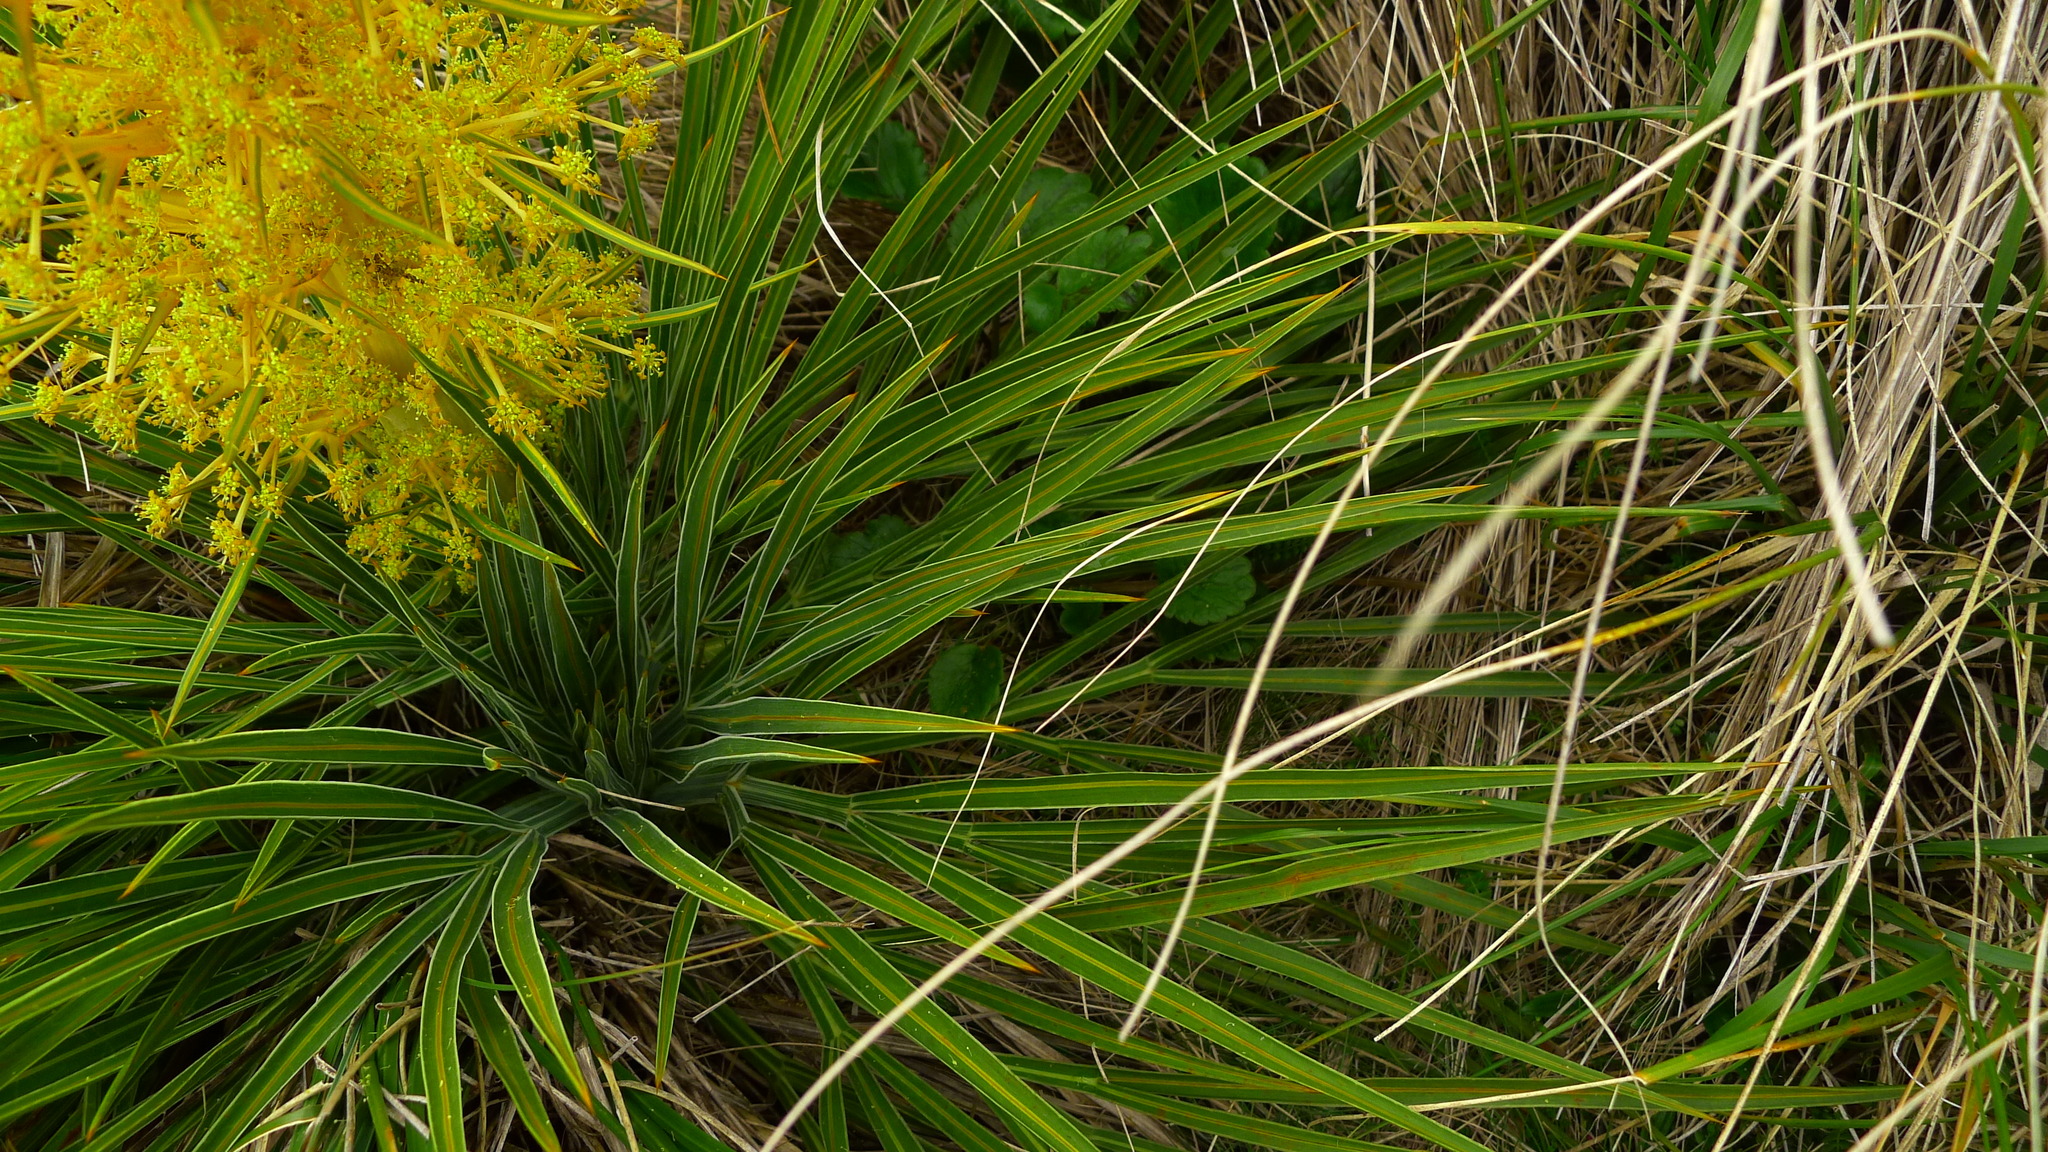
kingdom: Plantae
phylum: Tracheophyta
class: Magnoliopsida
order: Apiales
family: Apiaceae
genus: Aciphylla
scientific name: Aciphylla colensoi
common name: Colenso's spaniard
